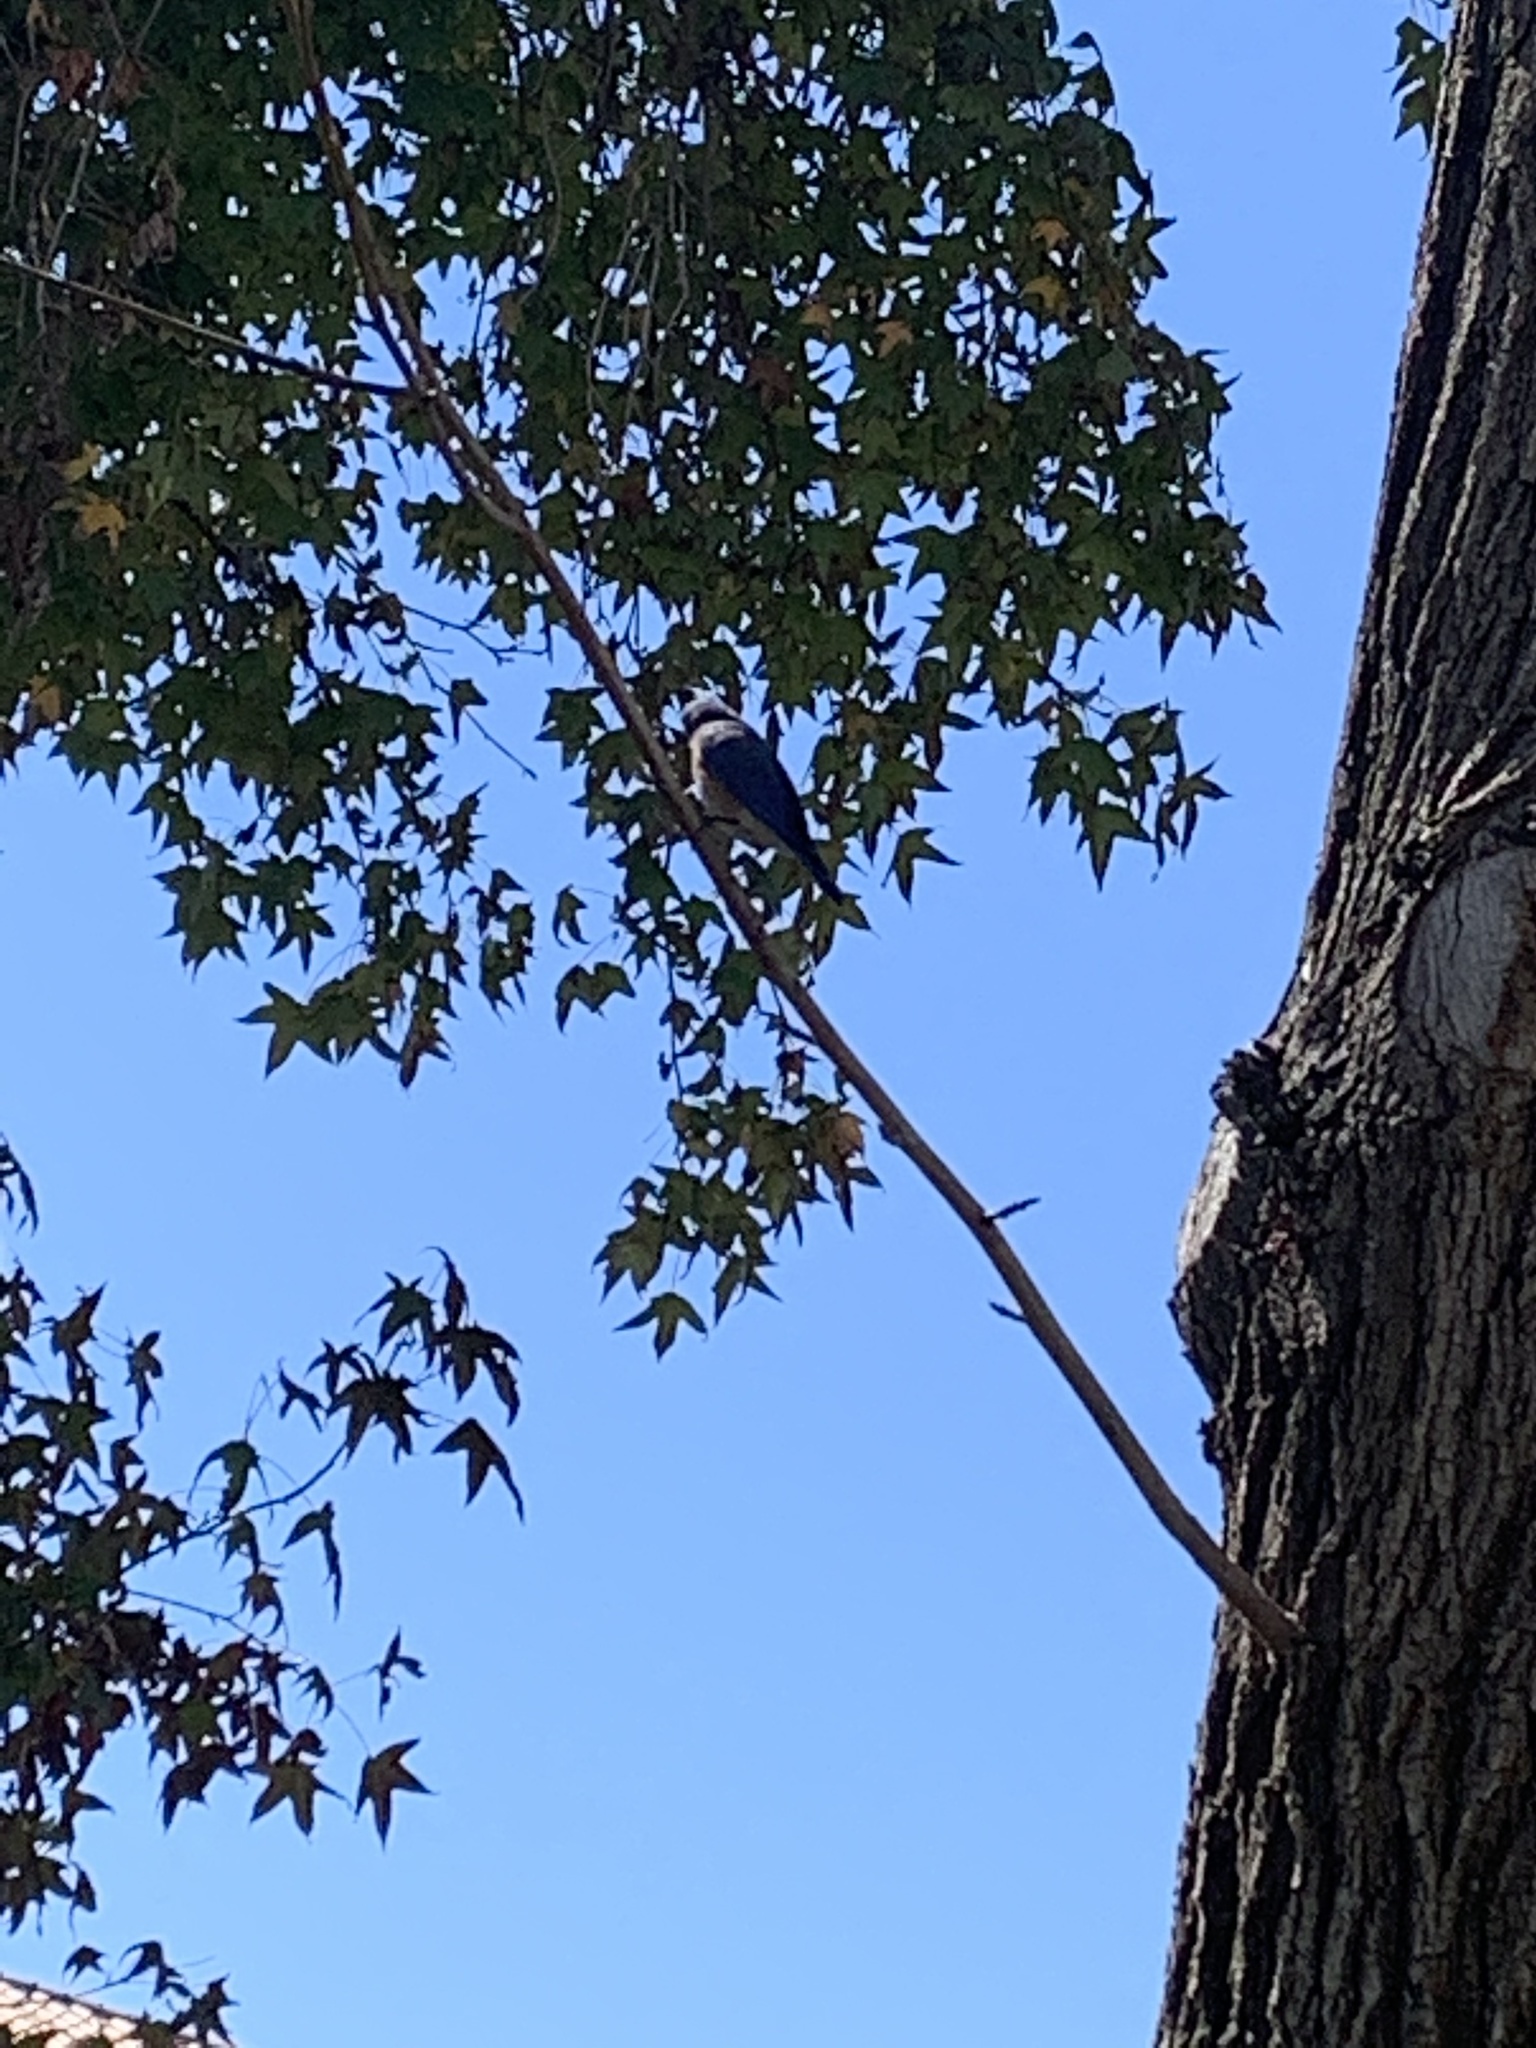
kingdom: Animalia
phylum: Chordata
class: Aves
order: Passeriformes
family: Turdidae
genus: Sialia
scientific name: Sialia mexicana
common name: Western bluebird
